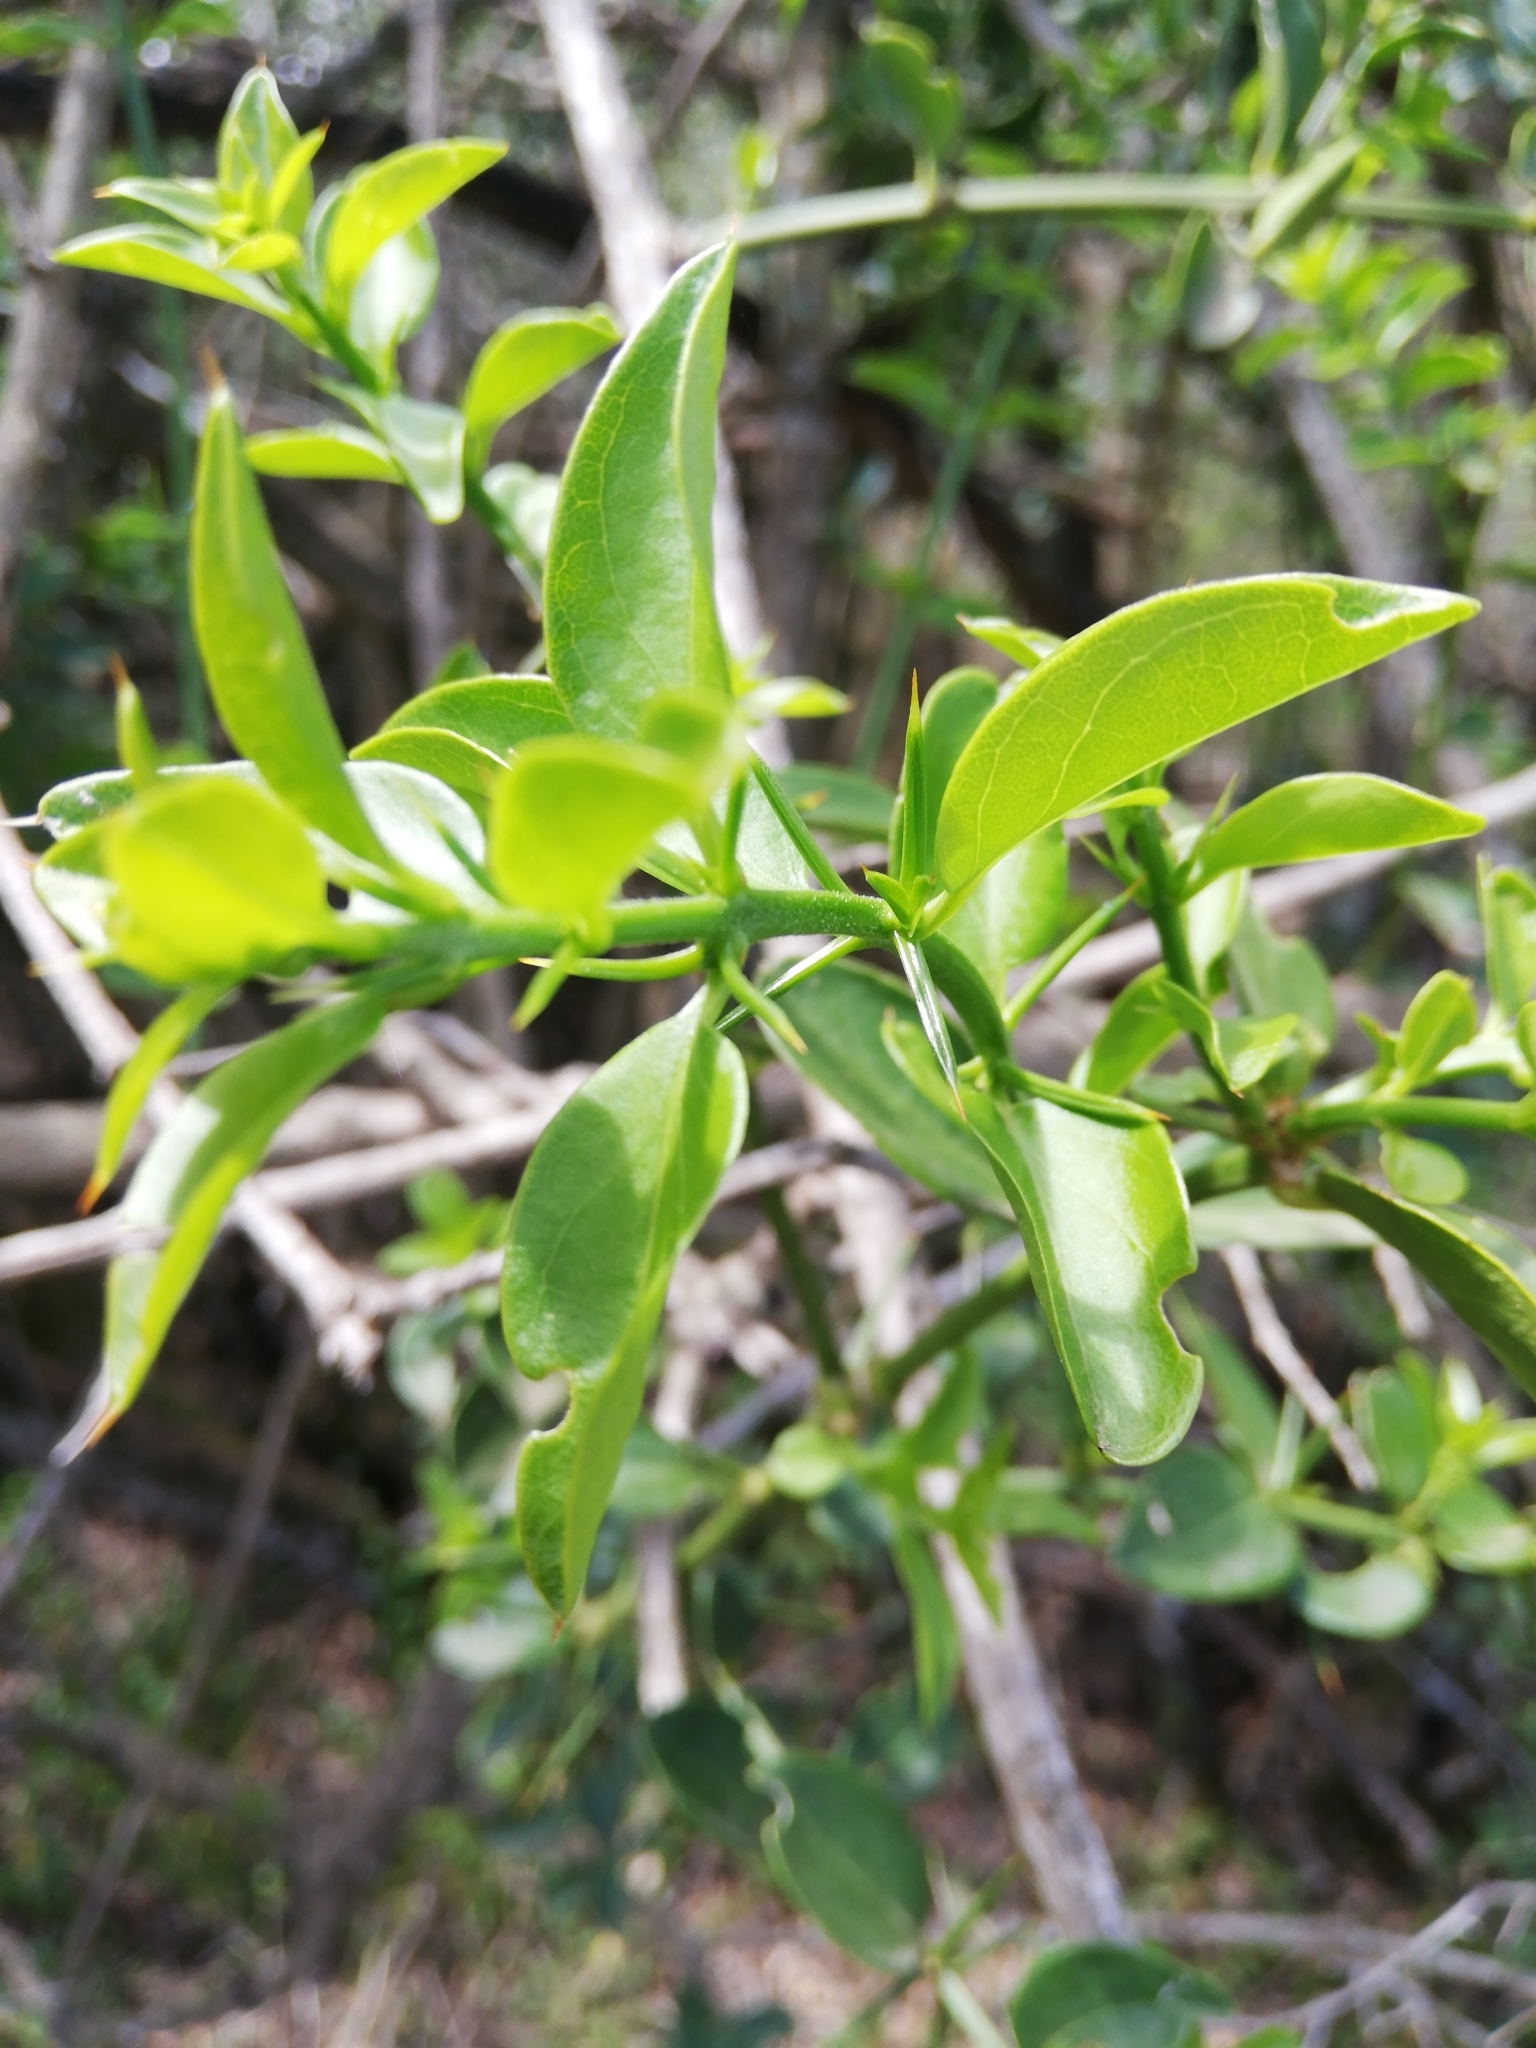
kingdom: Plantae
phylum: Tracheophyta
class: Magnoliopsida
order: Brassicales
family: Salvadoraceae
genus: Azima
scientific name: Azima tetracantha
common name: Needle bush
